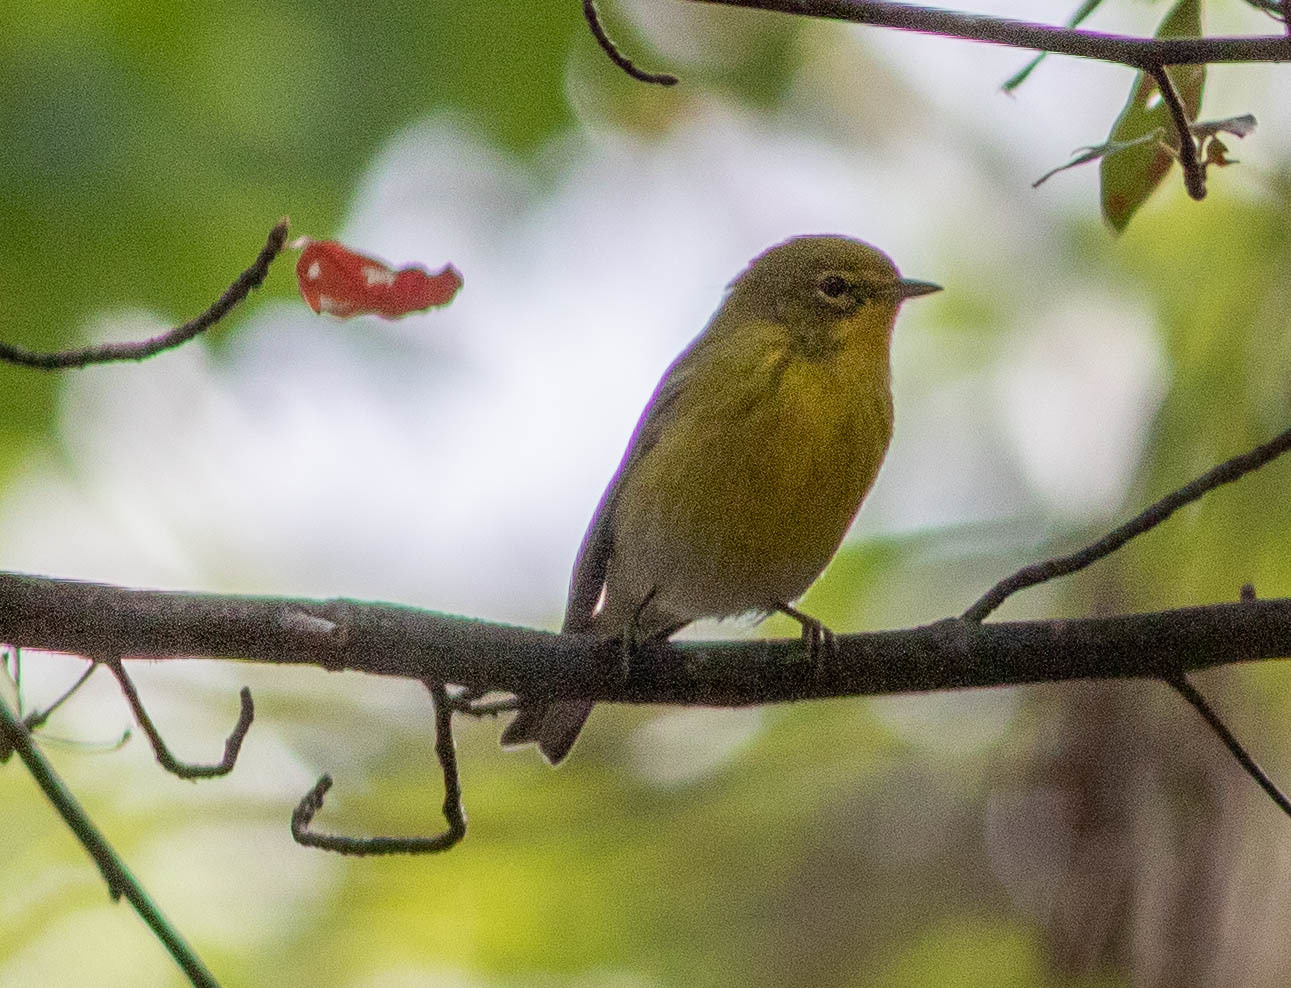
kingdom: Animalia
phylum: Chordata
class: Aves
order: Passeriformes
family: Parulidae
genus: Setophaga
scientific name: Setophaga pinus
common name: Pine warbler
